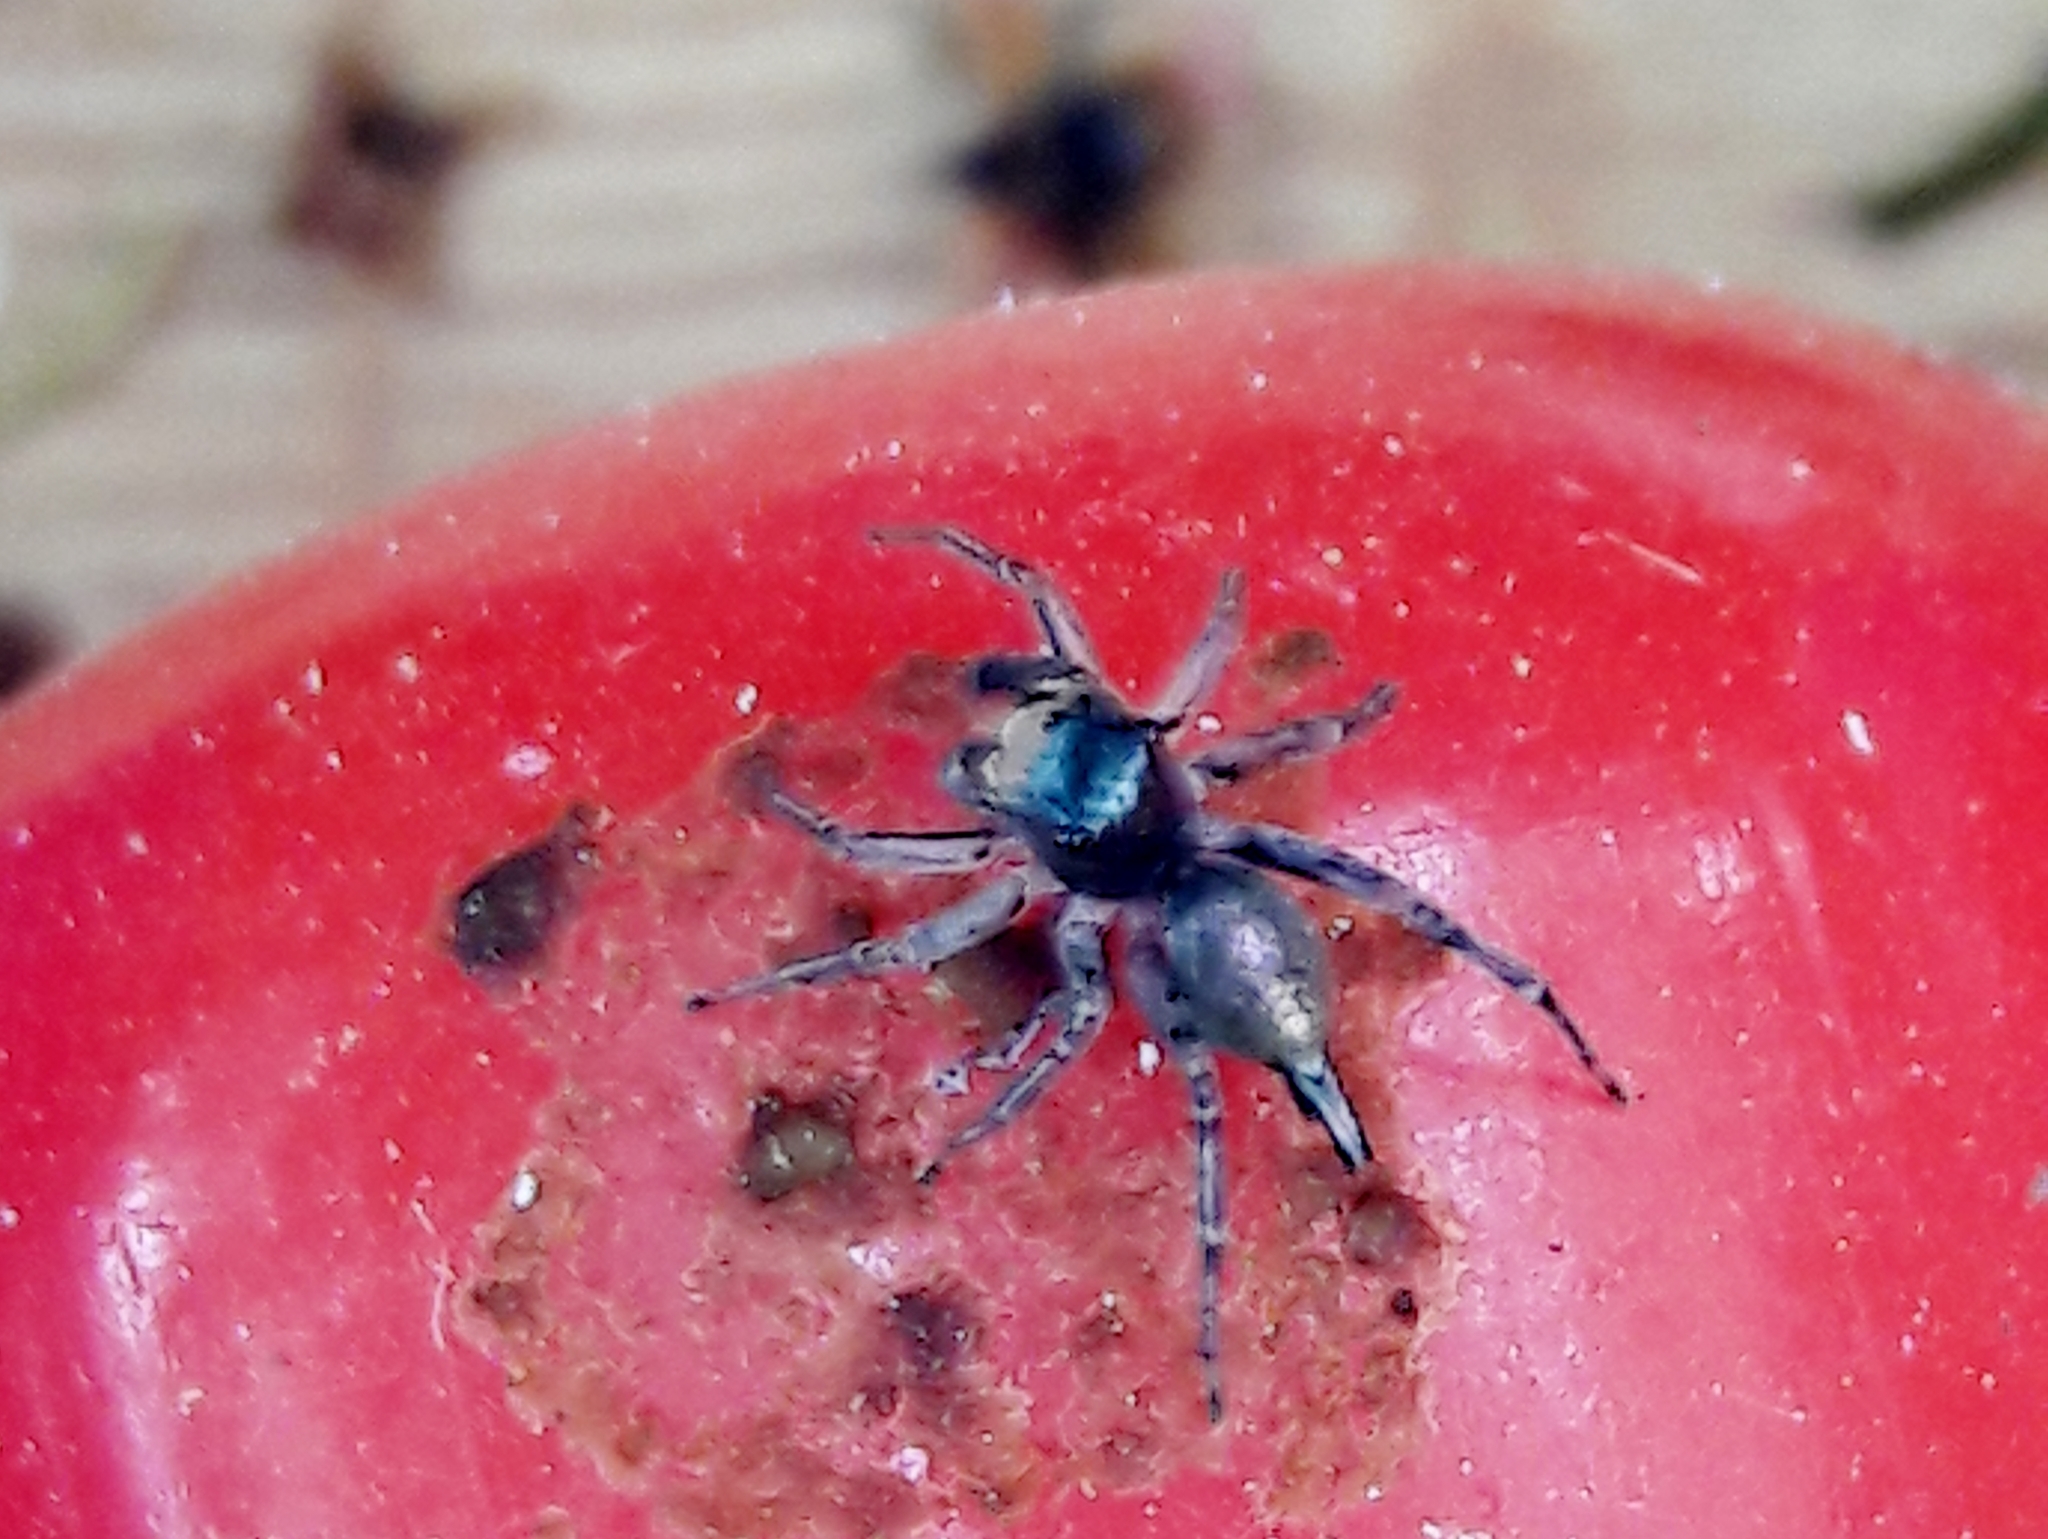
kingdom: Animalia
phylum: Arthropoda
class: Arachnida
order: Araneae
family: Salticidae
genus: Maeota
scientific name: Maeota dichrura
